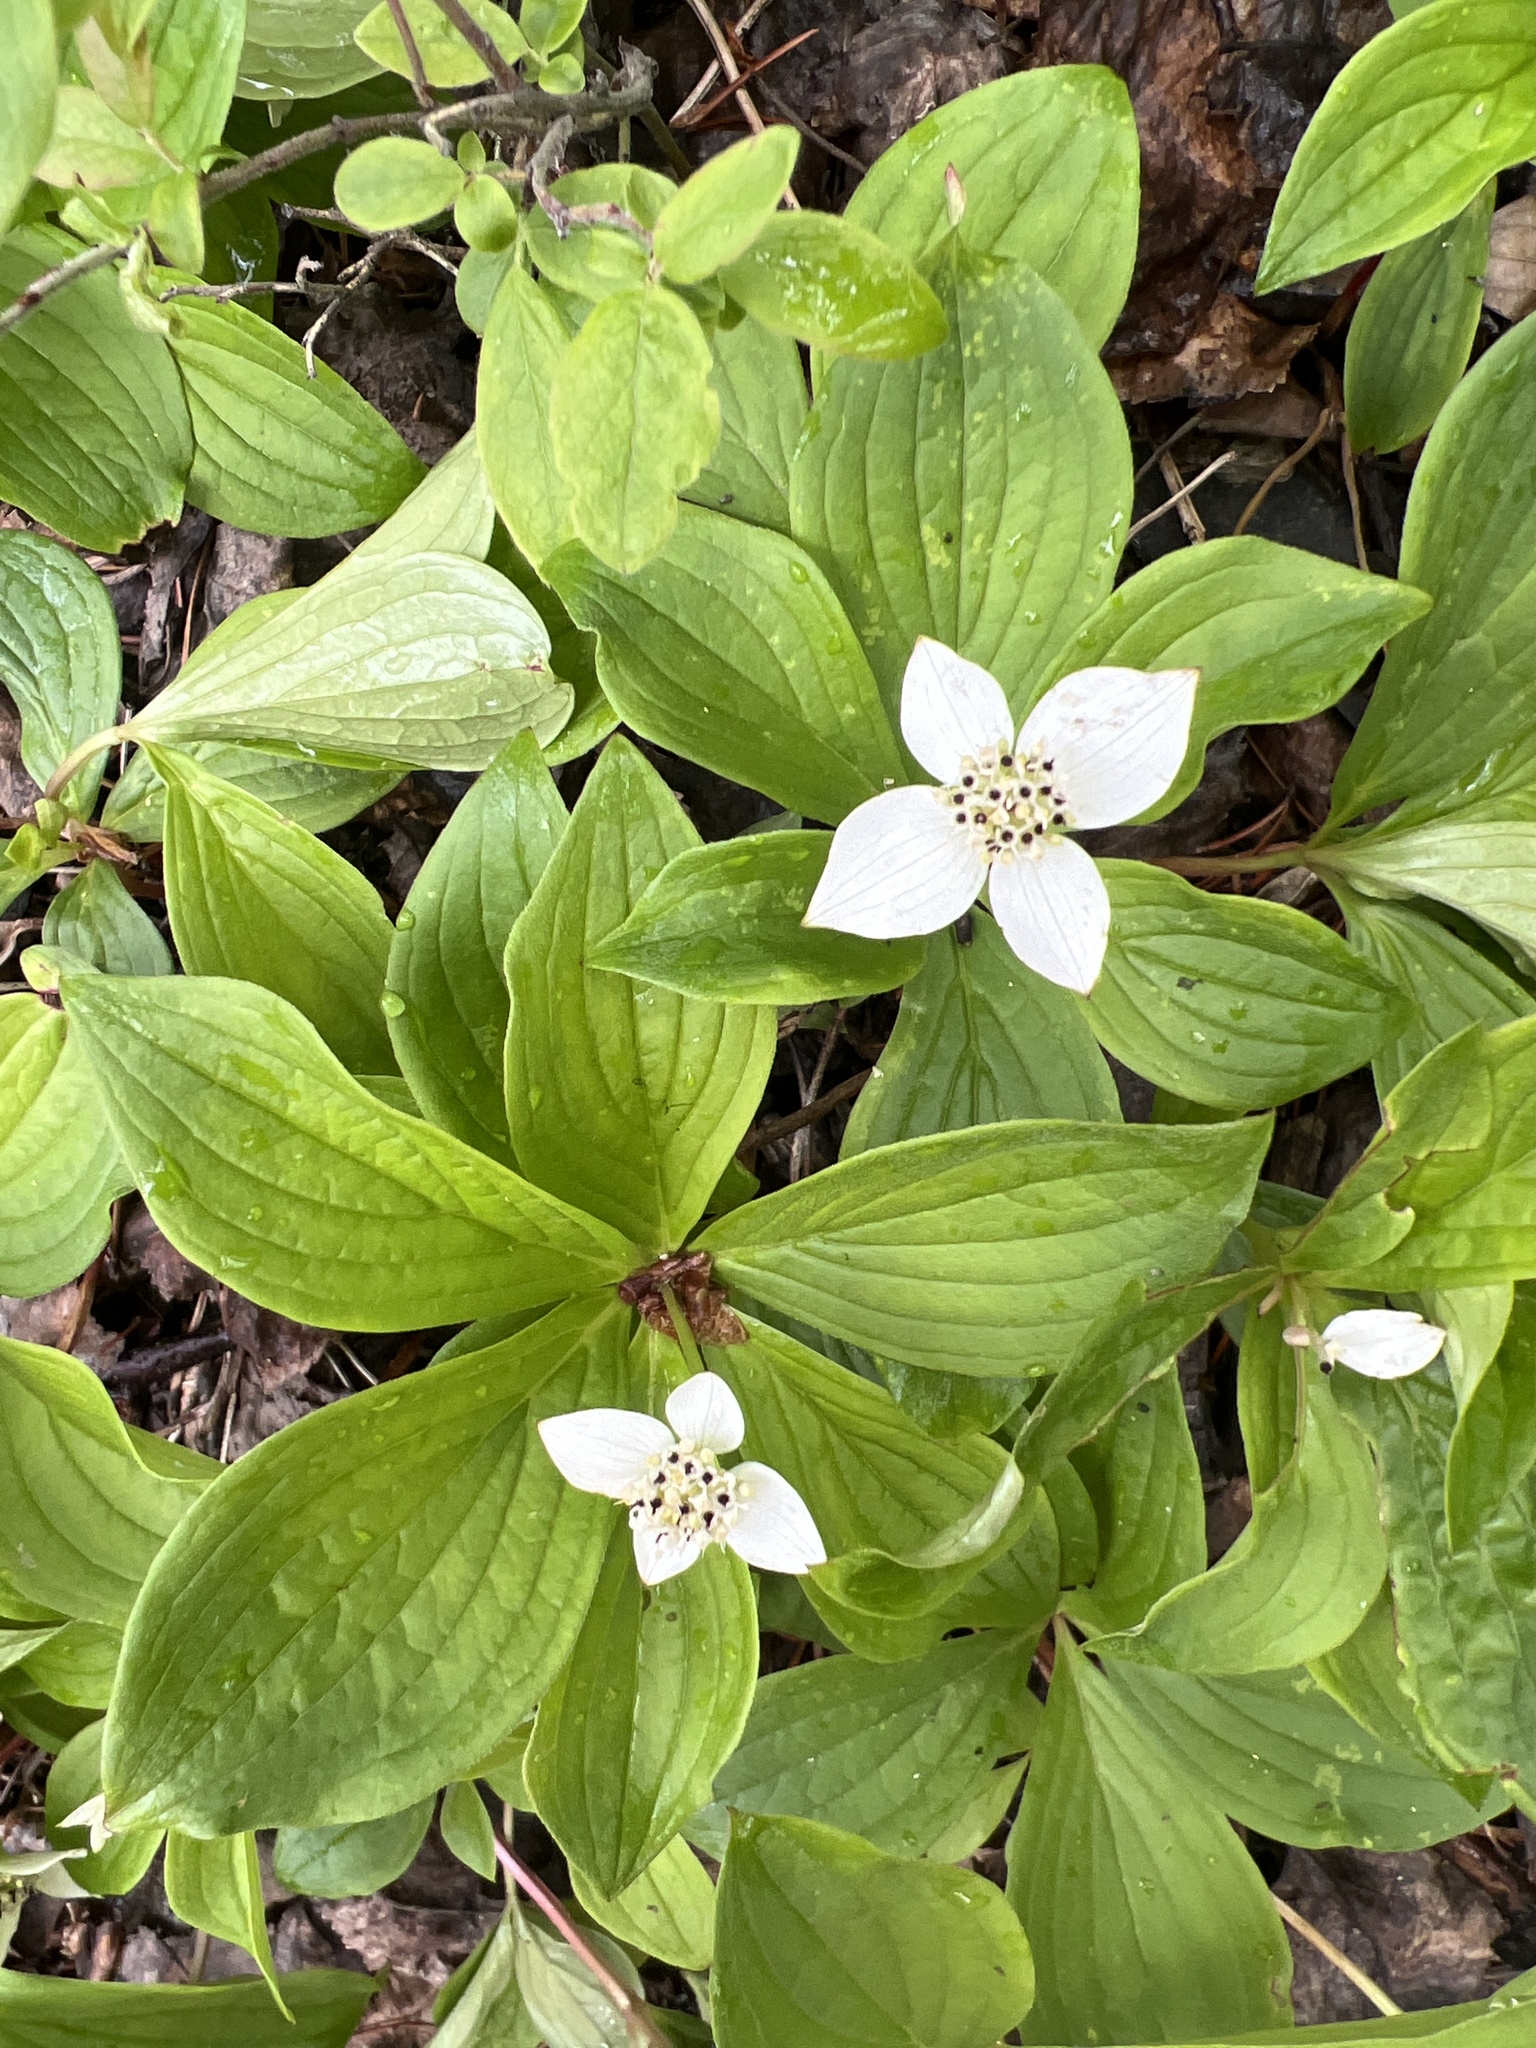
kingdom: Plantae
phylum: Tracheophyta
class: Magnoliopsida
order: Cornales
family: Cornaceae
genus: Cornus
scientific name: Cornus canadensis
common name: Creeping dogwood
